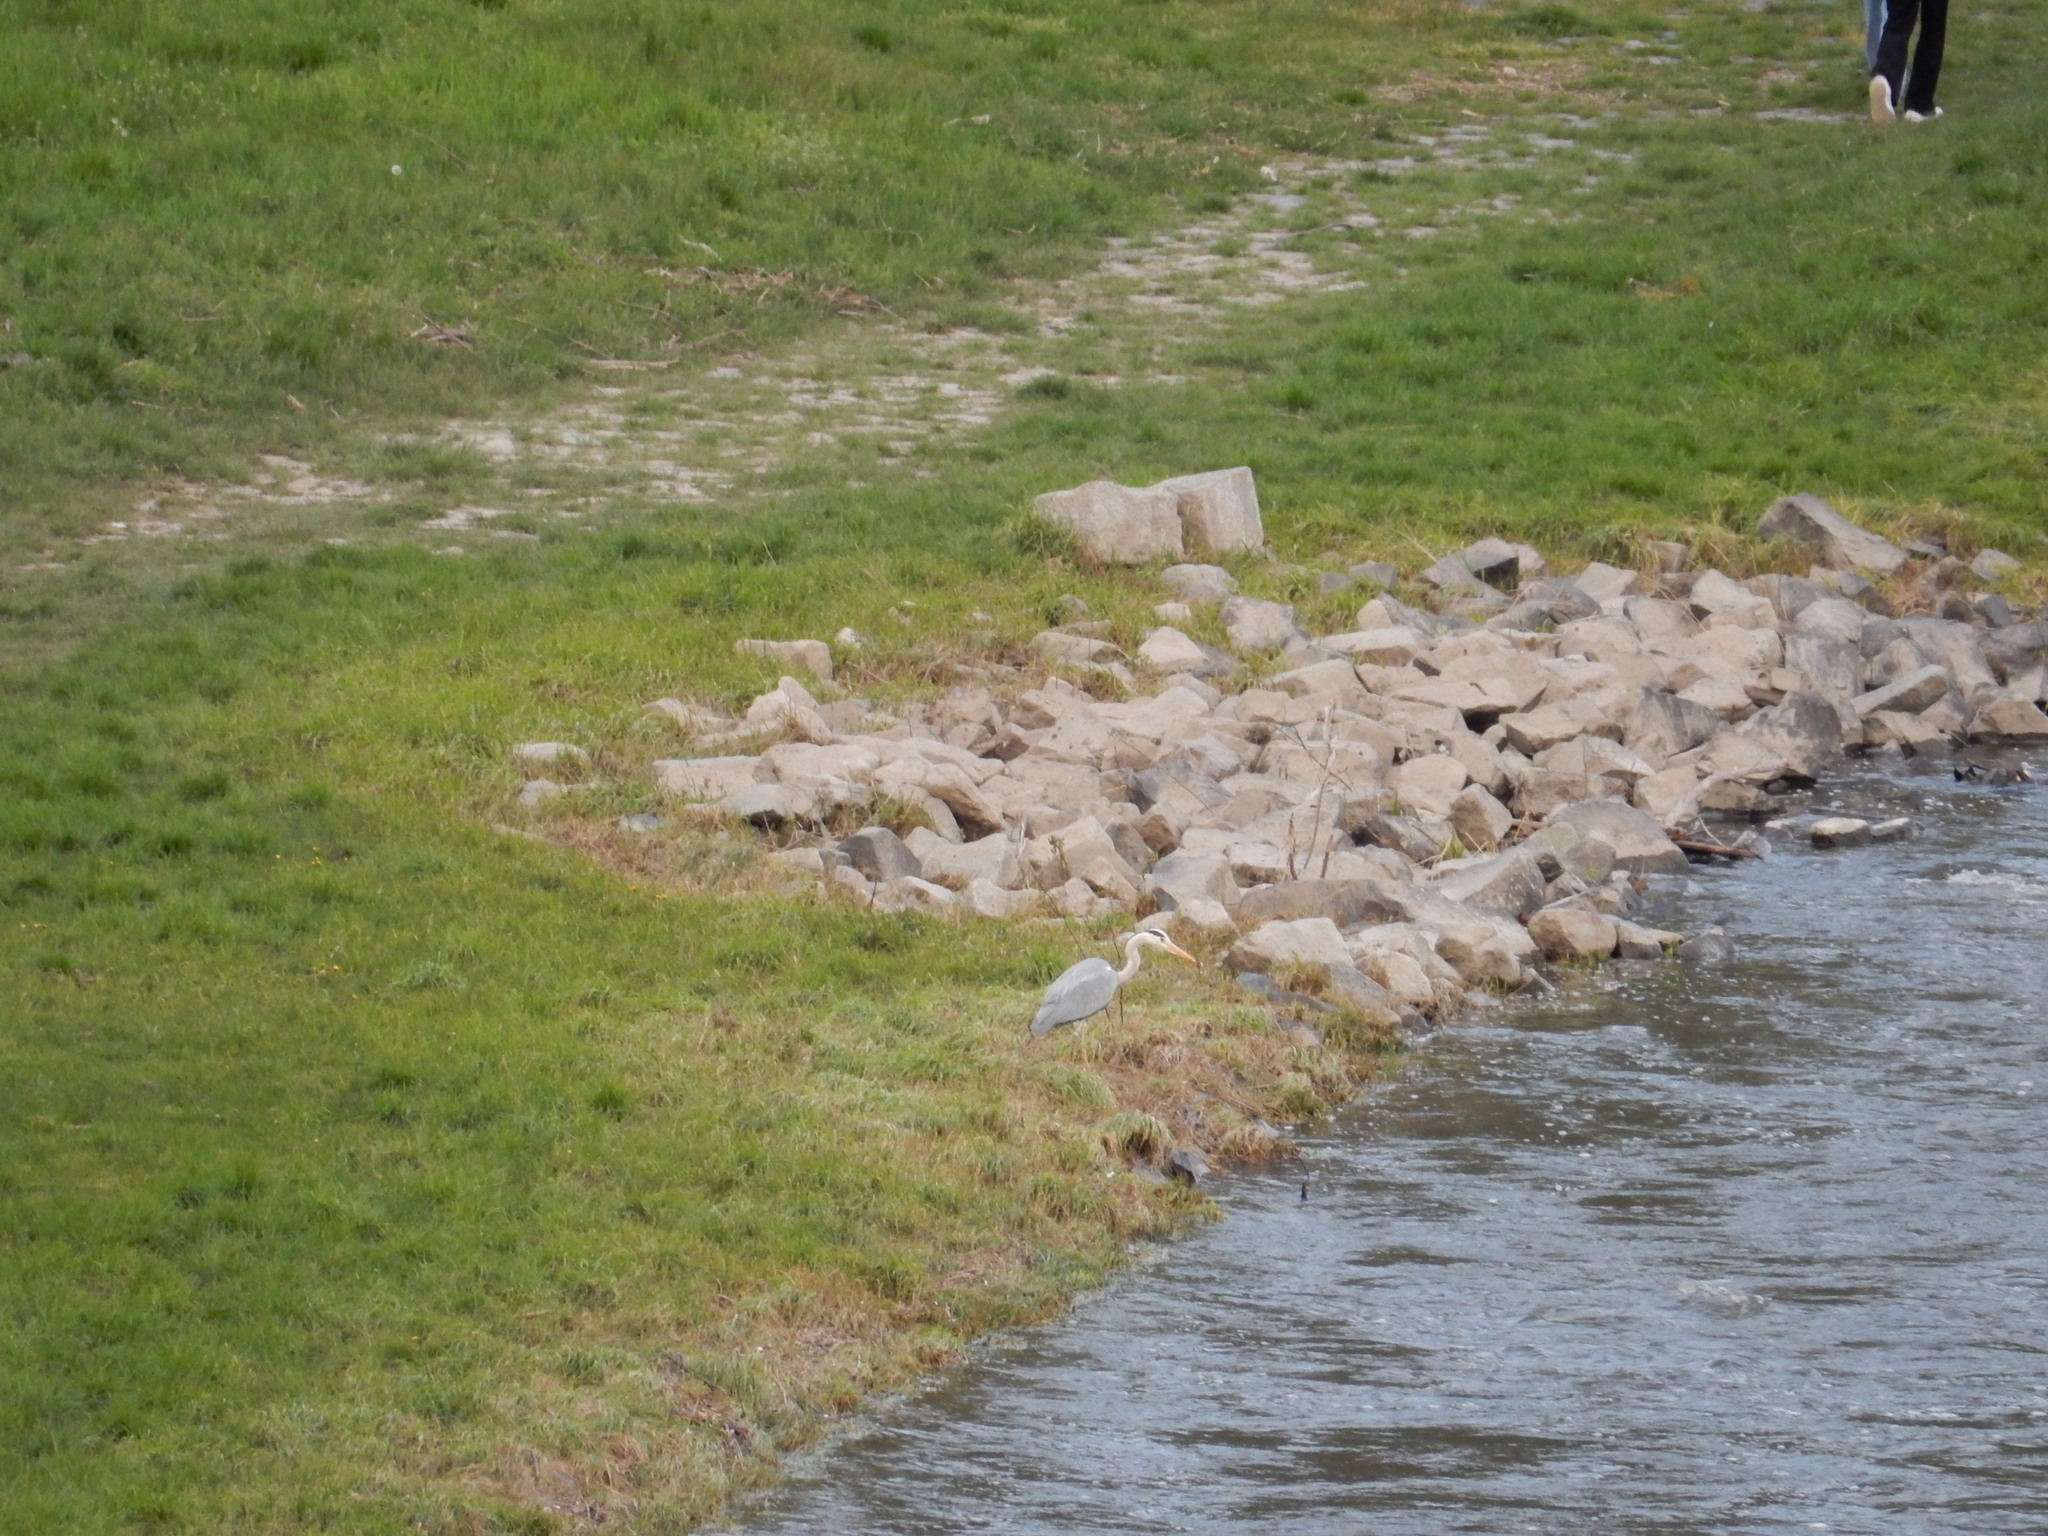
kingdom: Animalia
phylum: Chordata
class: Aves
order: Pelecaniformes
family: Ardeidae
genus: Ardea
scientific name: Ardea cinerea
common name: Grey heron
